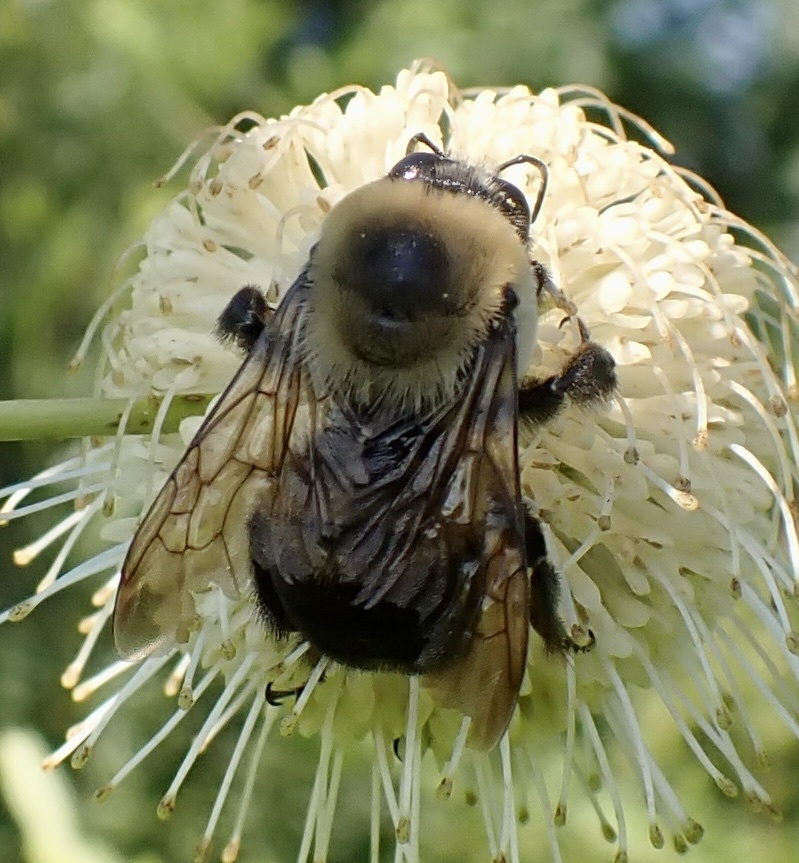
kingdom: Animalia
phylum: Arthropoda
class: Insecta
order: Hymenoptera
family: Apidae
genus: Bombus
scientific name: Bombus griseocollis
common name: Brown-belted bumble bee
